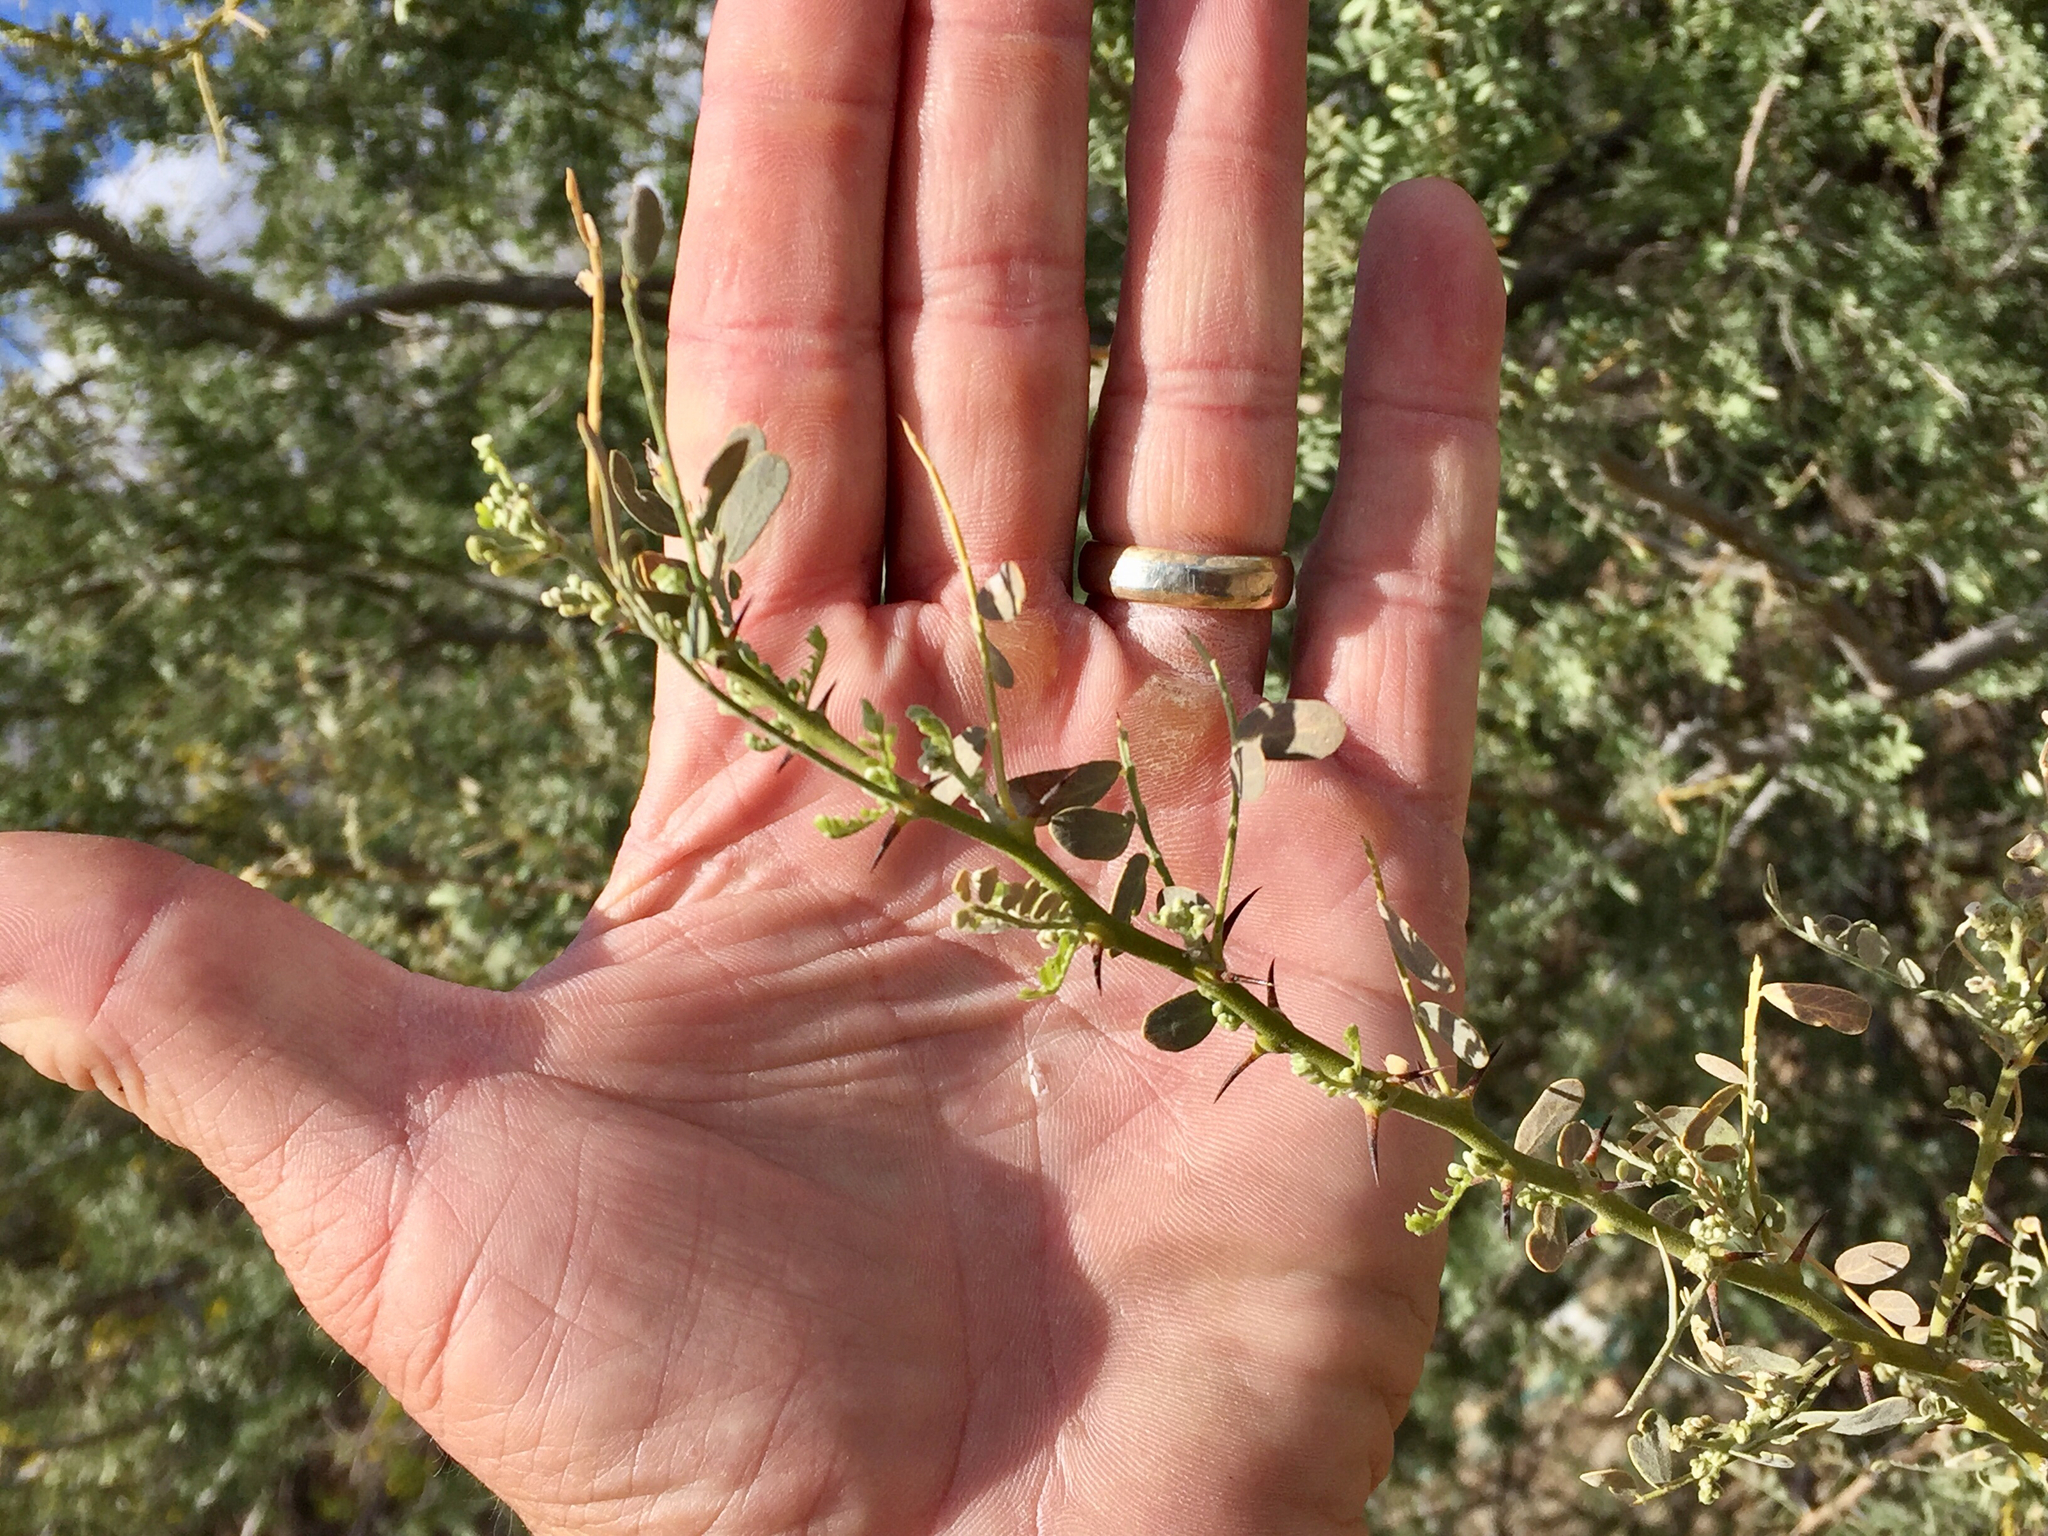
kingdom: Plantae
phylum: Tracheophyta
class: Magnoliopsida
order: Fabales
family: Fabaceae
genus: Olneya
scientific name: Olneya tesota
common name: Desert ironwood
